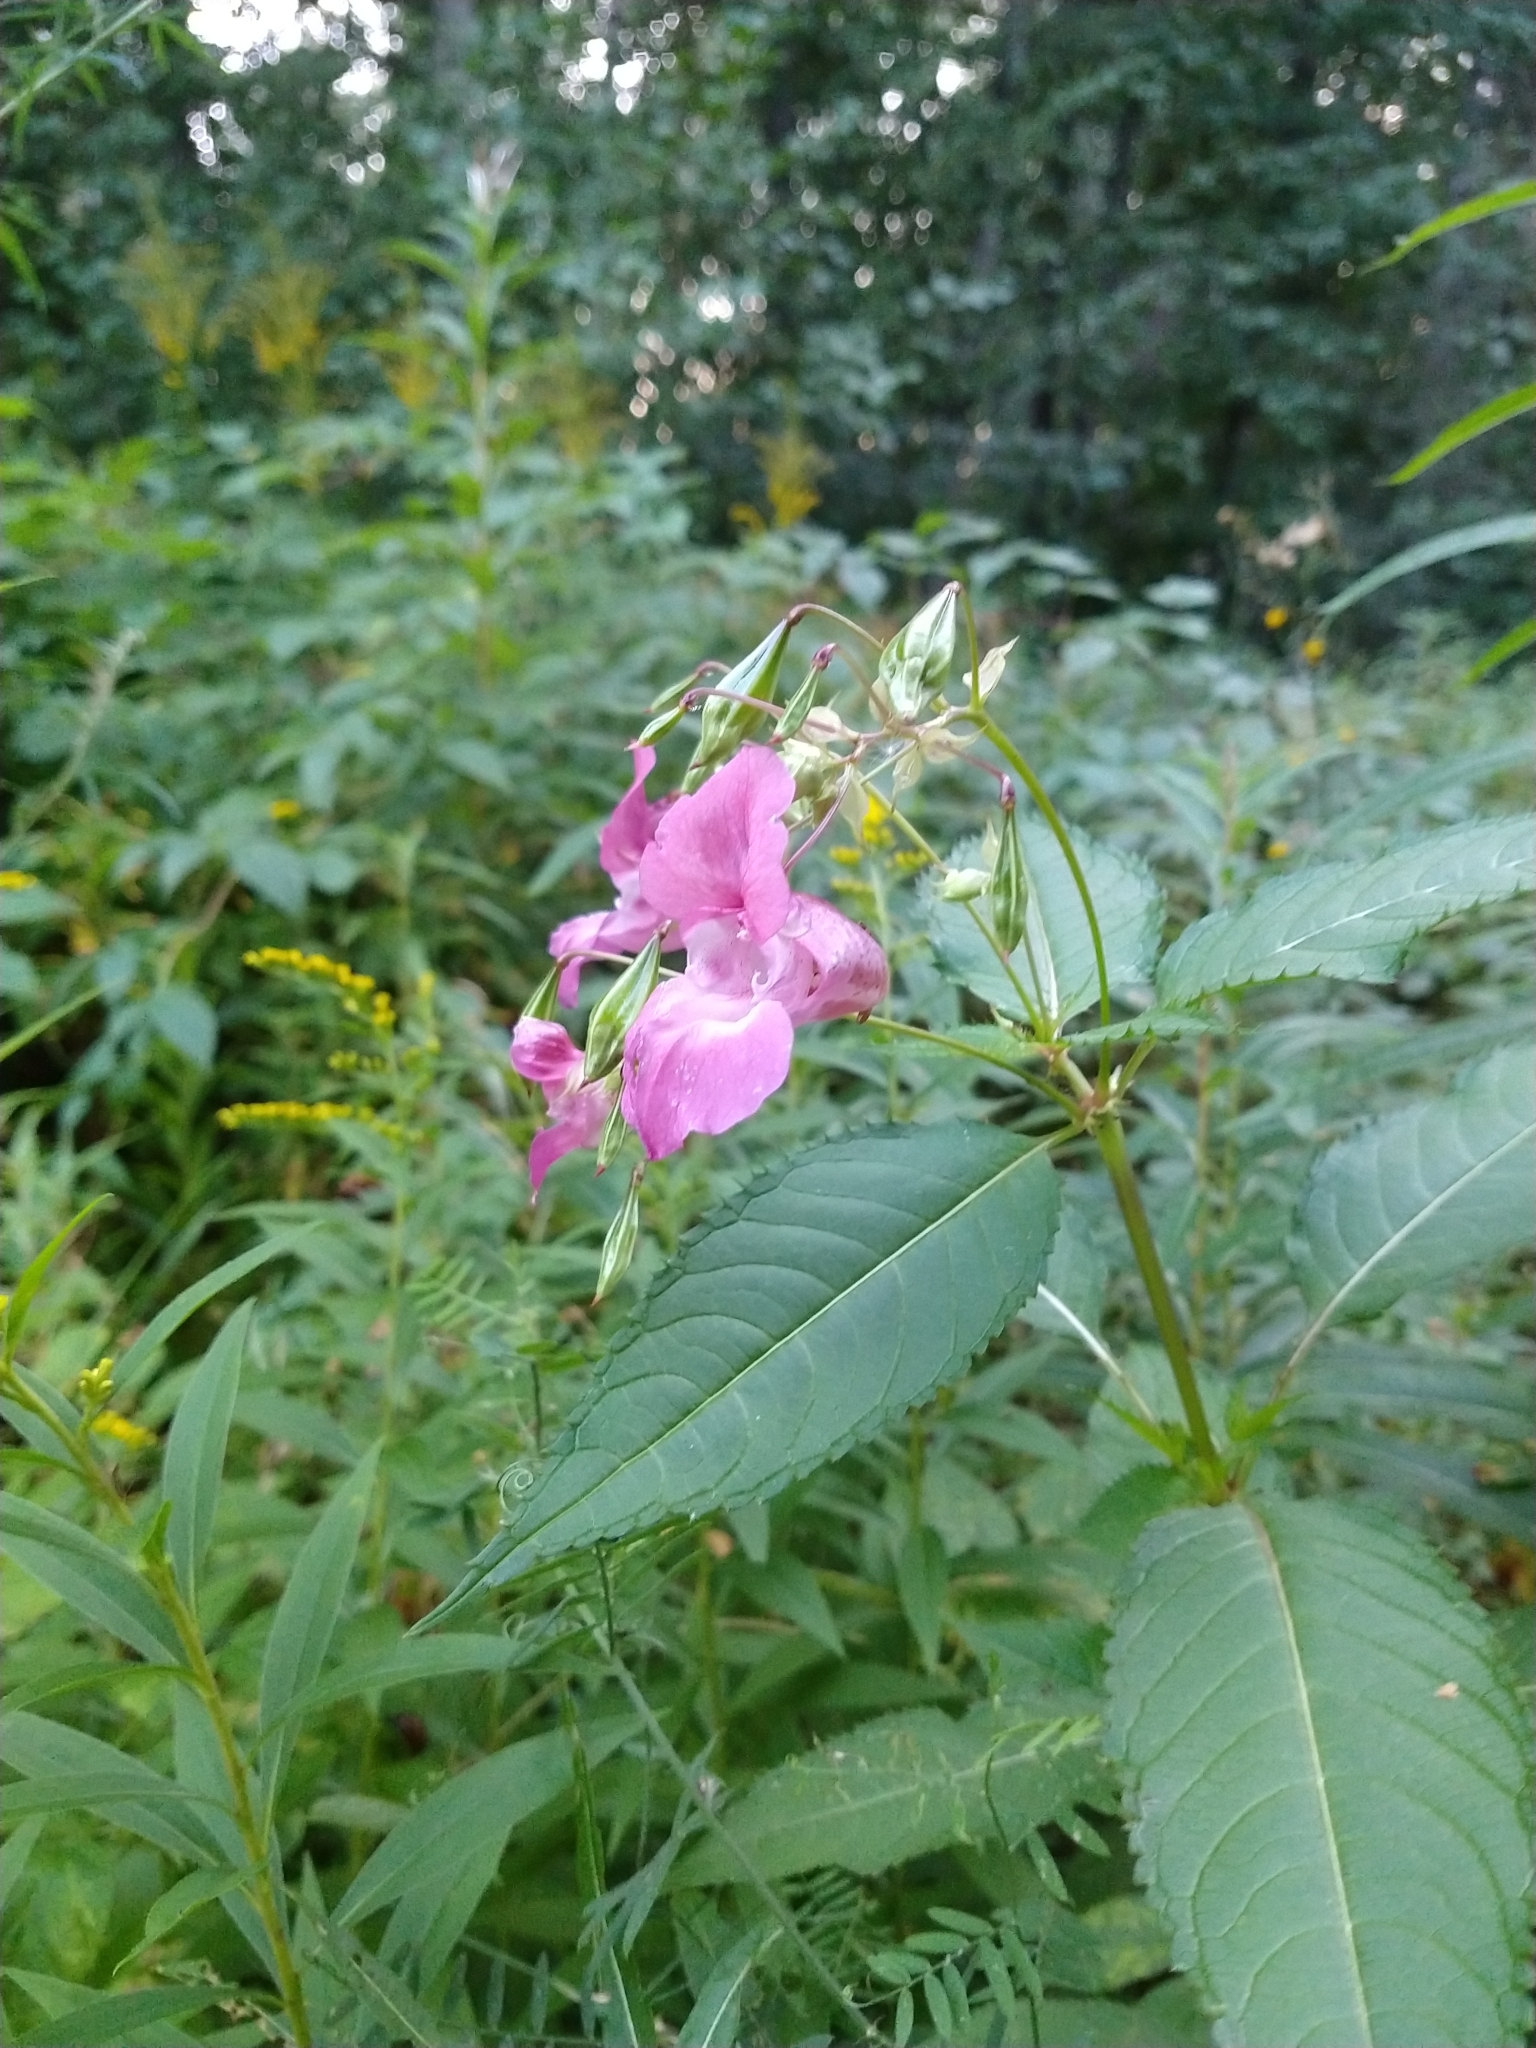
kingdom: Plantae
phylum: Tracheophyta
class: Magnoliopsida
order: Ericales
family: Balsaminaceae
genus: Impatiens
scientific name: Impatiens glandulifera
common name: Himalayan balsam
